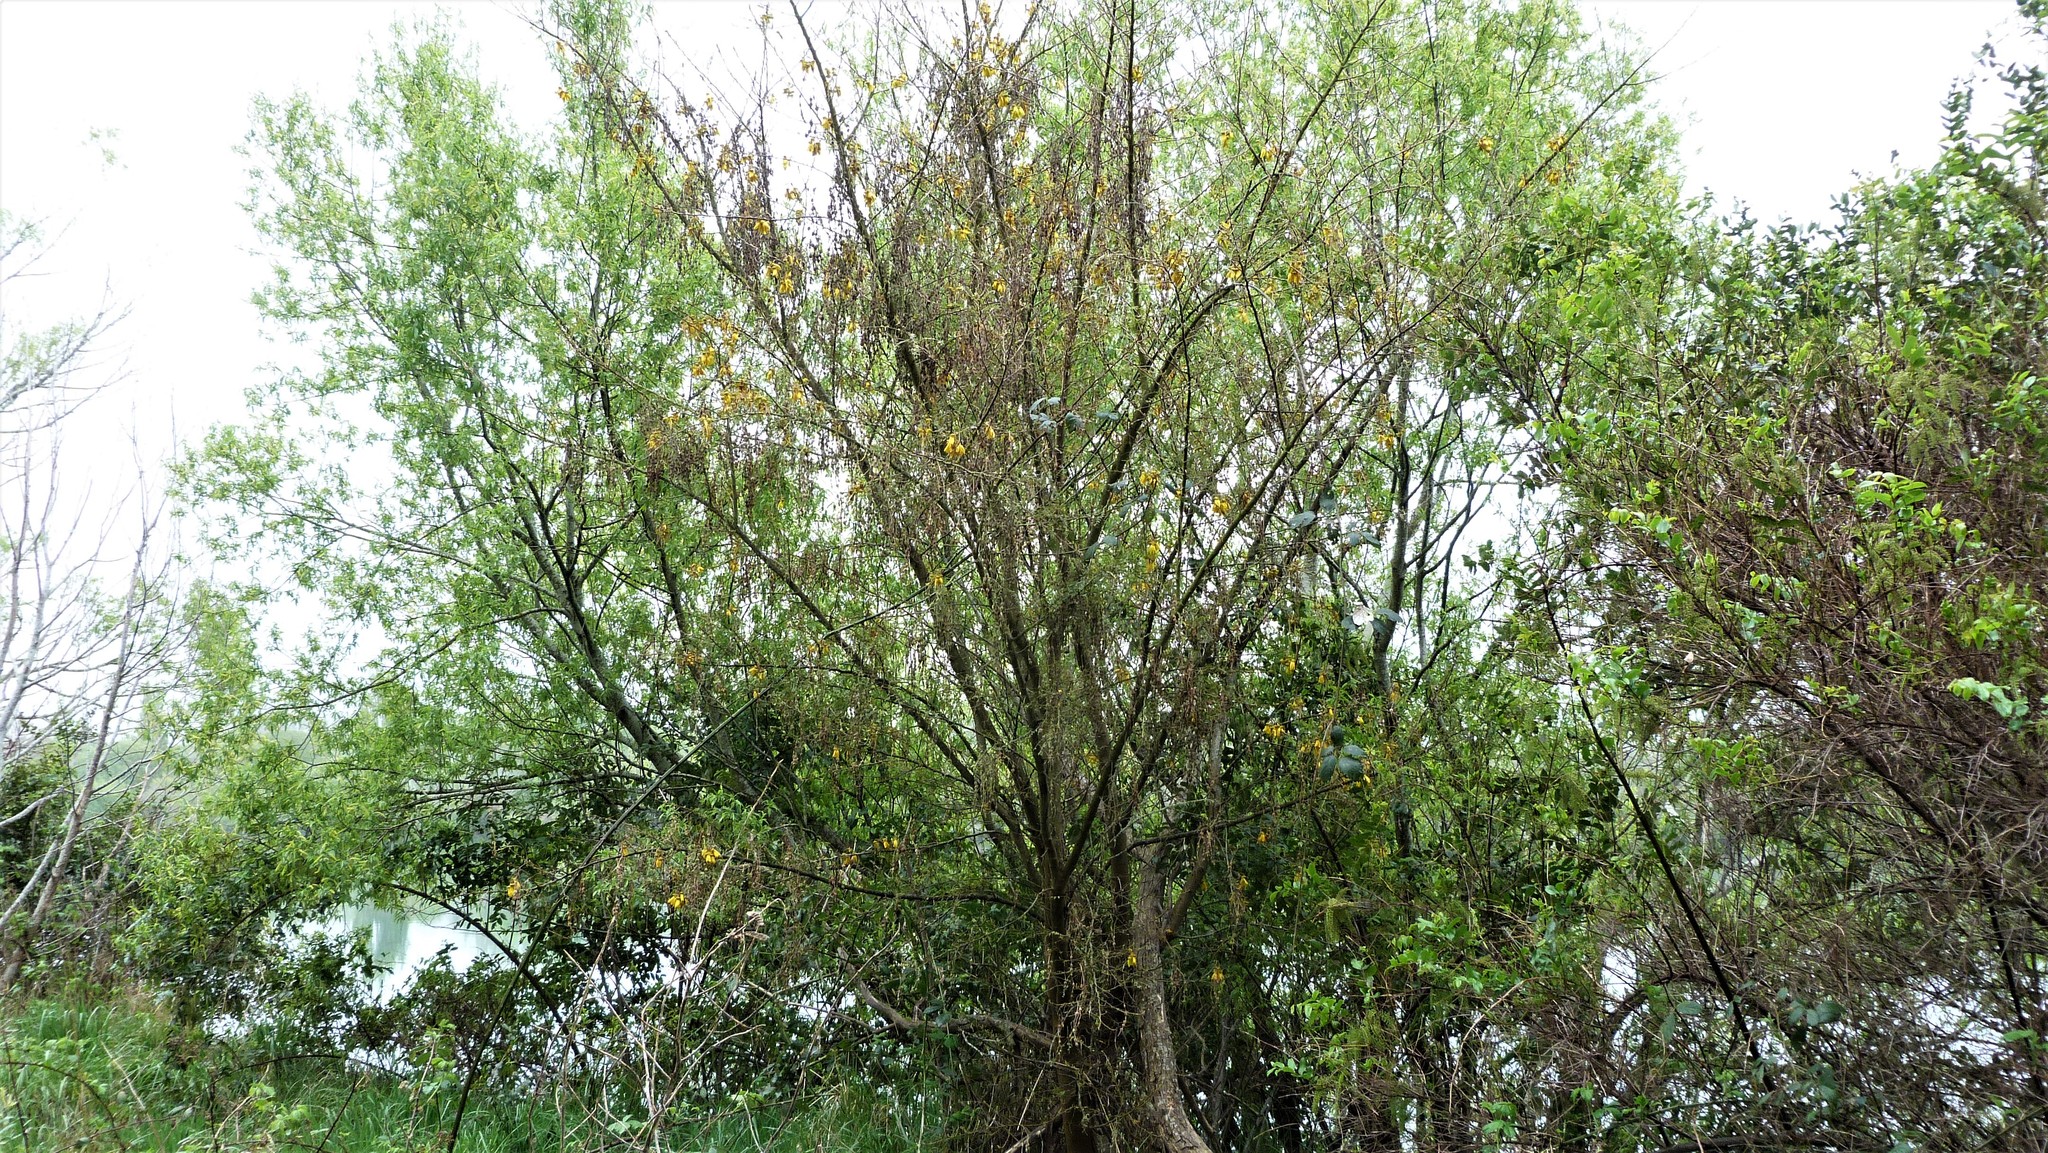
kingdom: Plantae
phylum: Tracheophyta
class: Magnoliopsida
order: Fabales
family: Fabaceae
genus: Sophora
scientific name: Sophora microphylla
